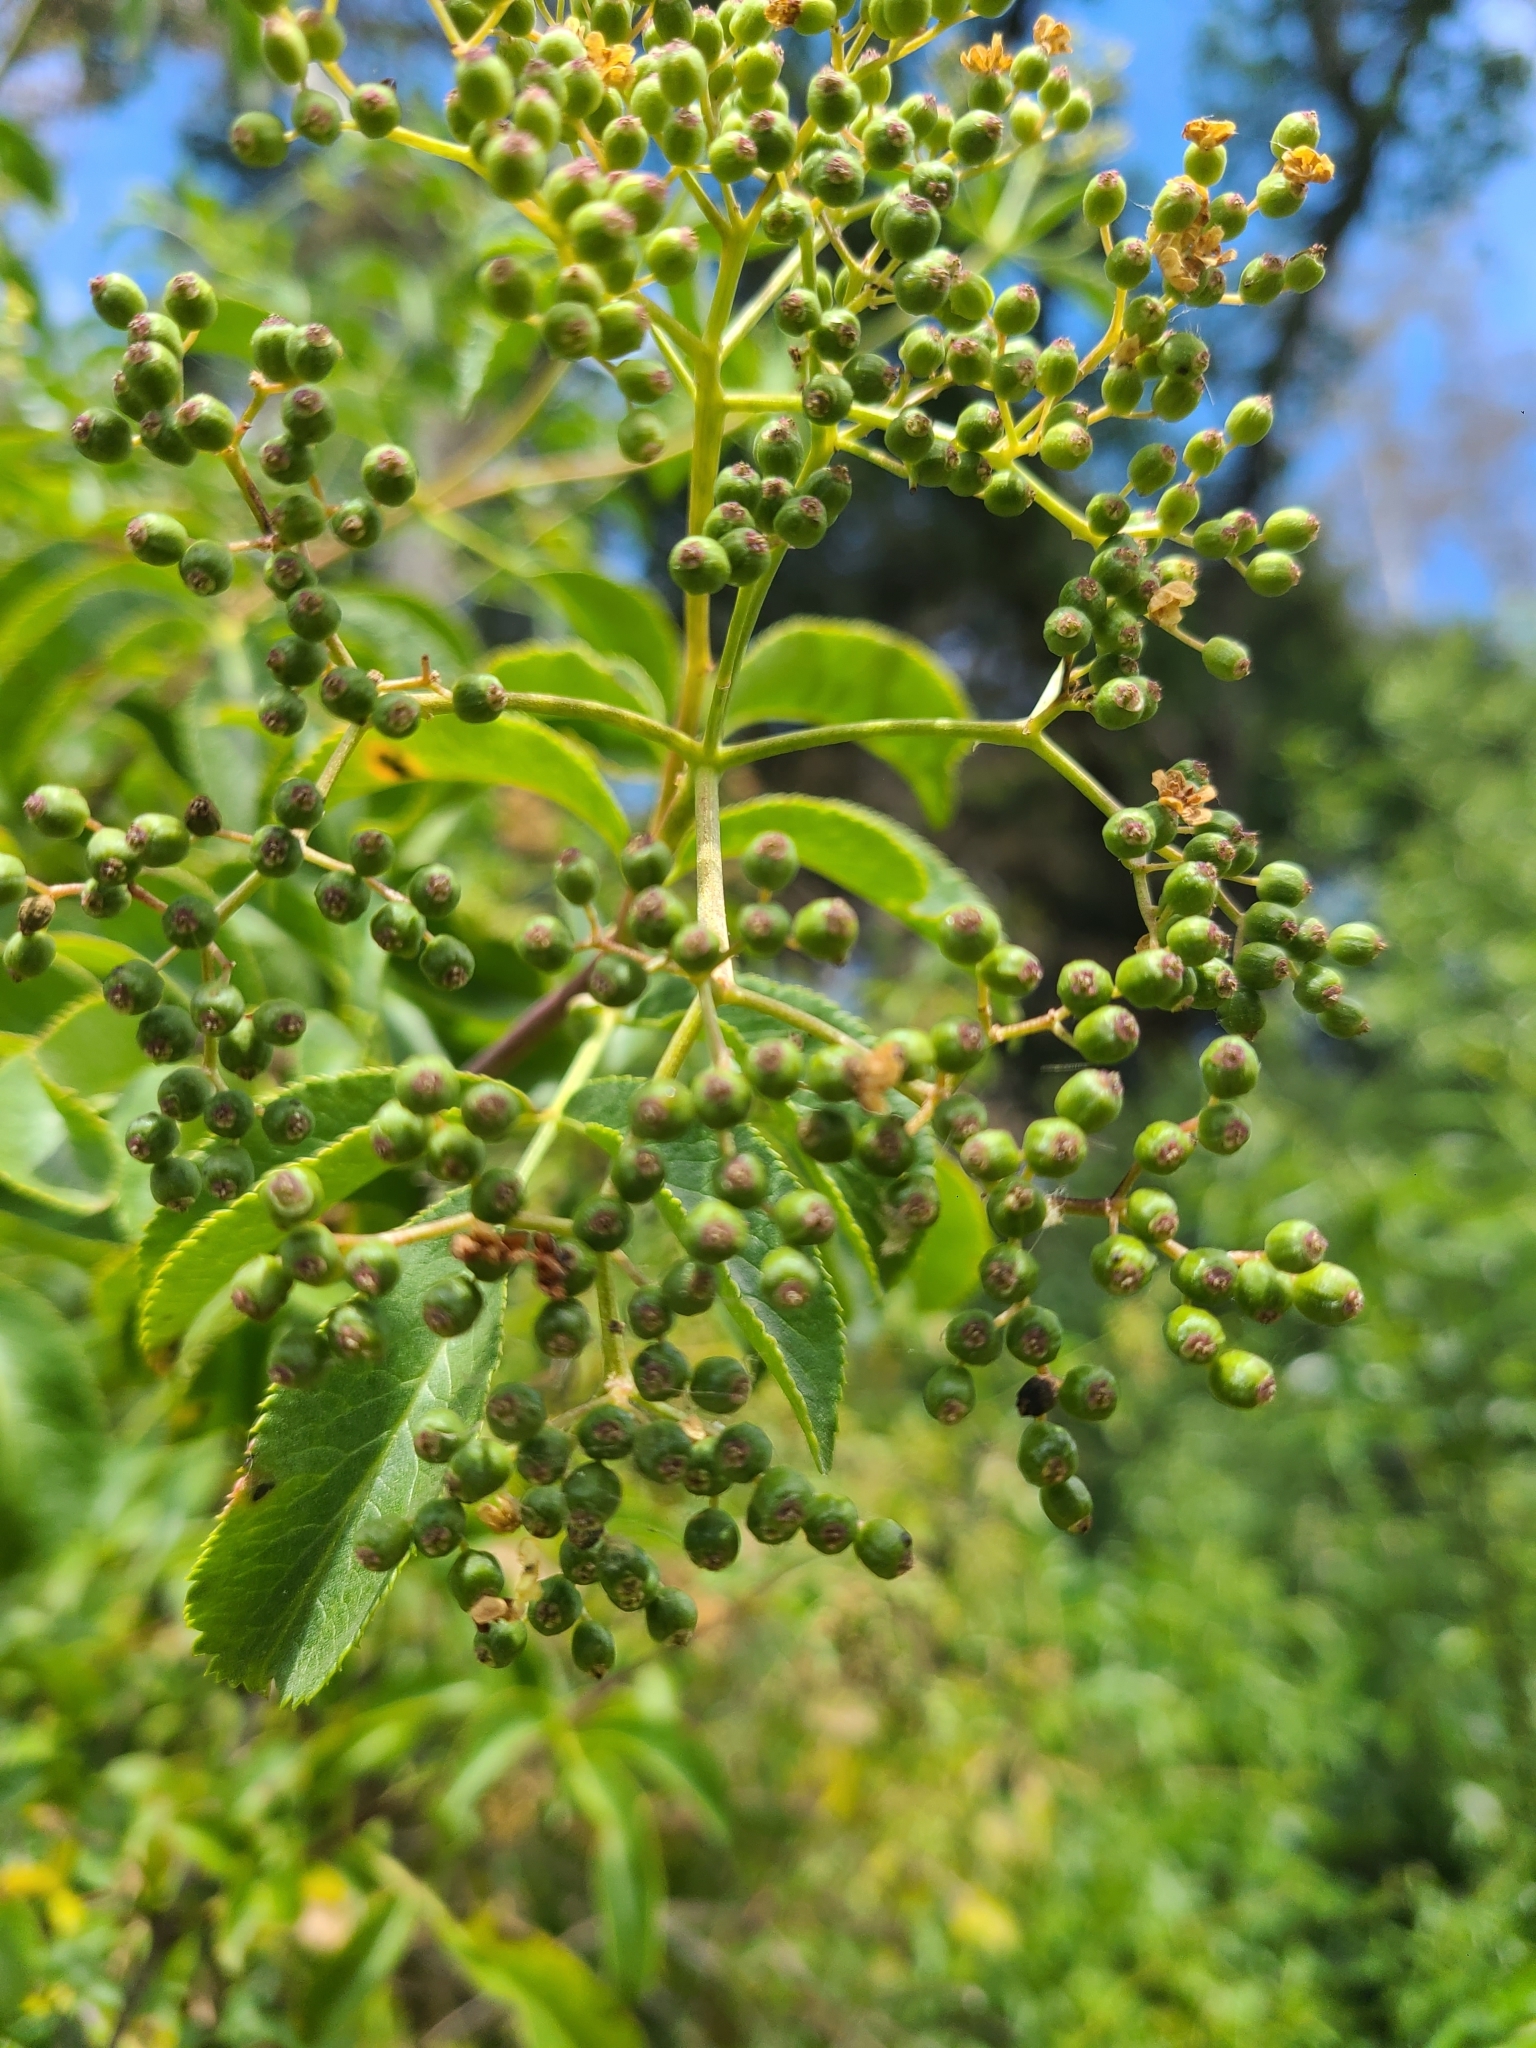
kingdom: Plantae
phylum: Tracheophyta
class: Magnoliopsida
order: Dipsacales
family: Viburnaceae
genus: Sambucus
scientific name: Sambucus cerulea
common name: Blue elder
